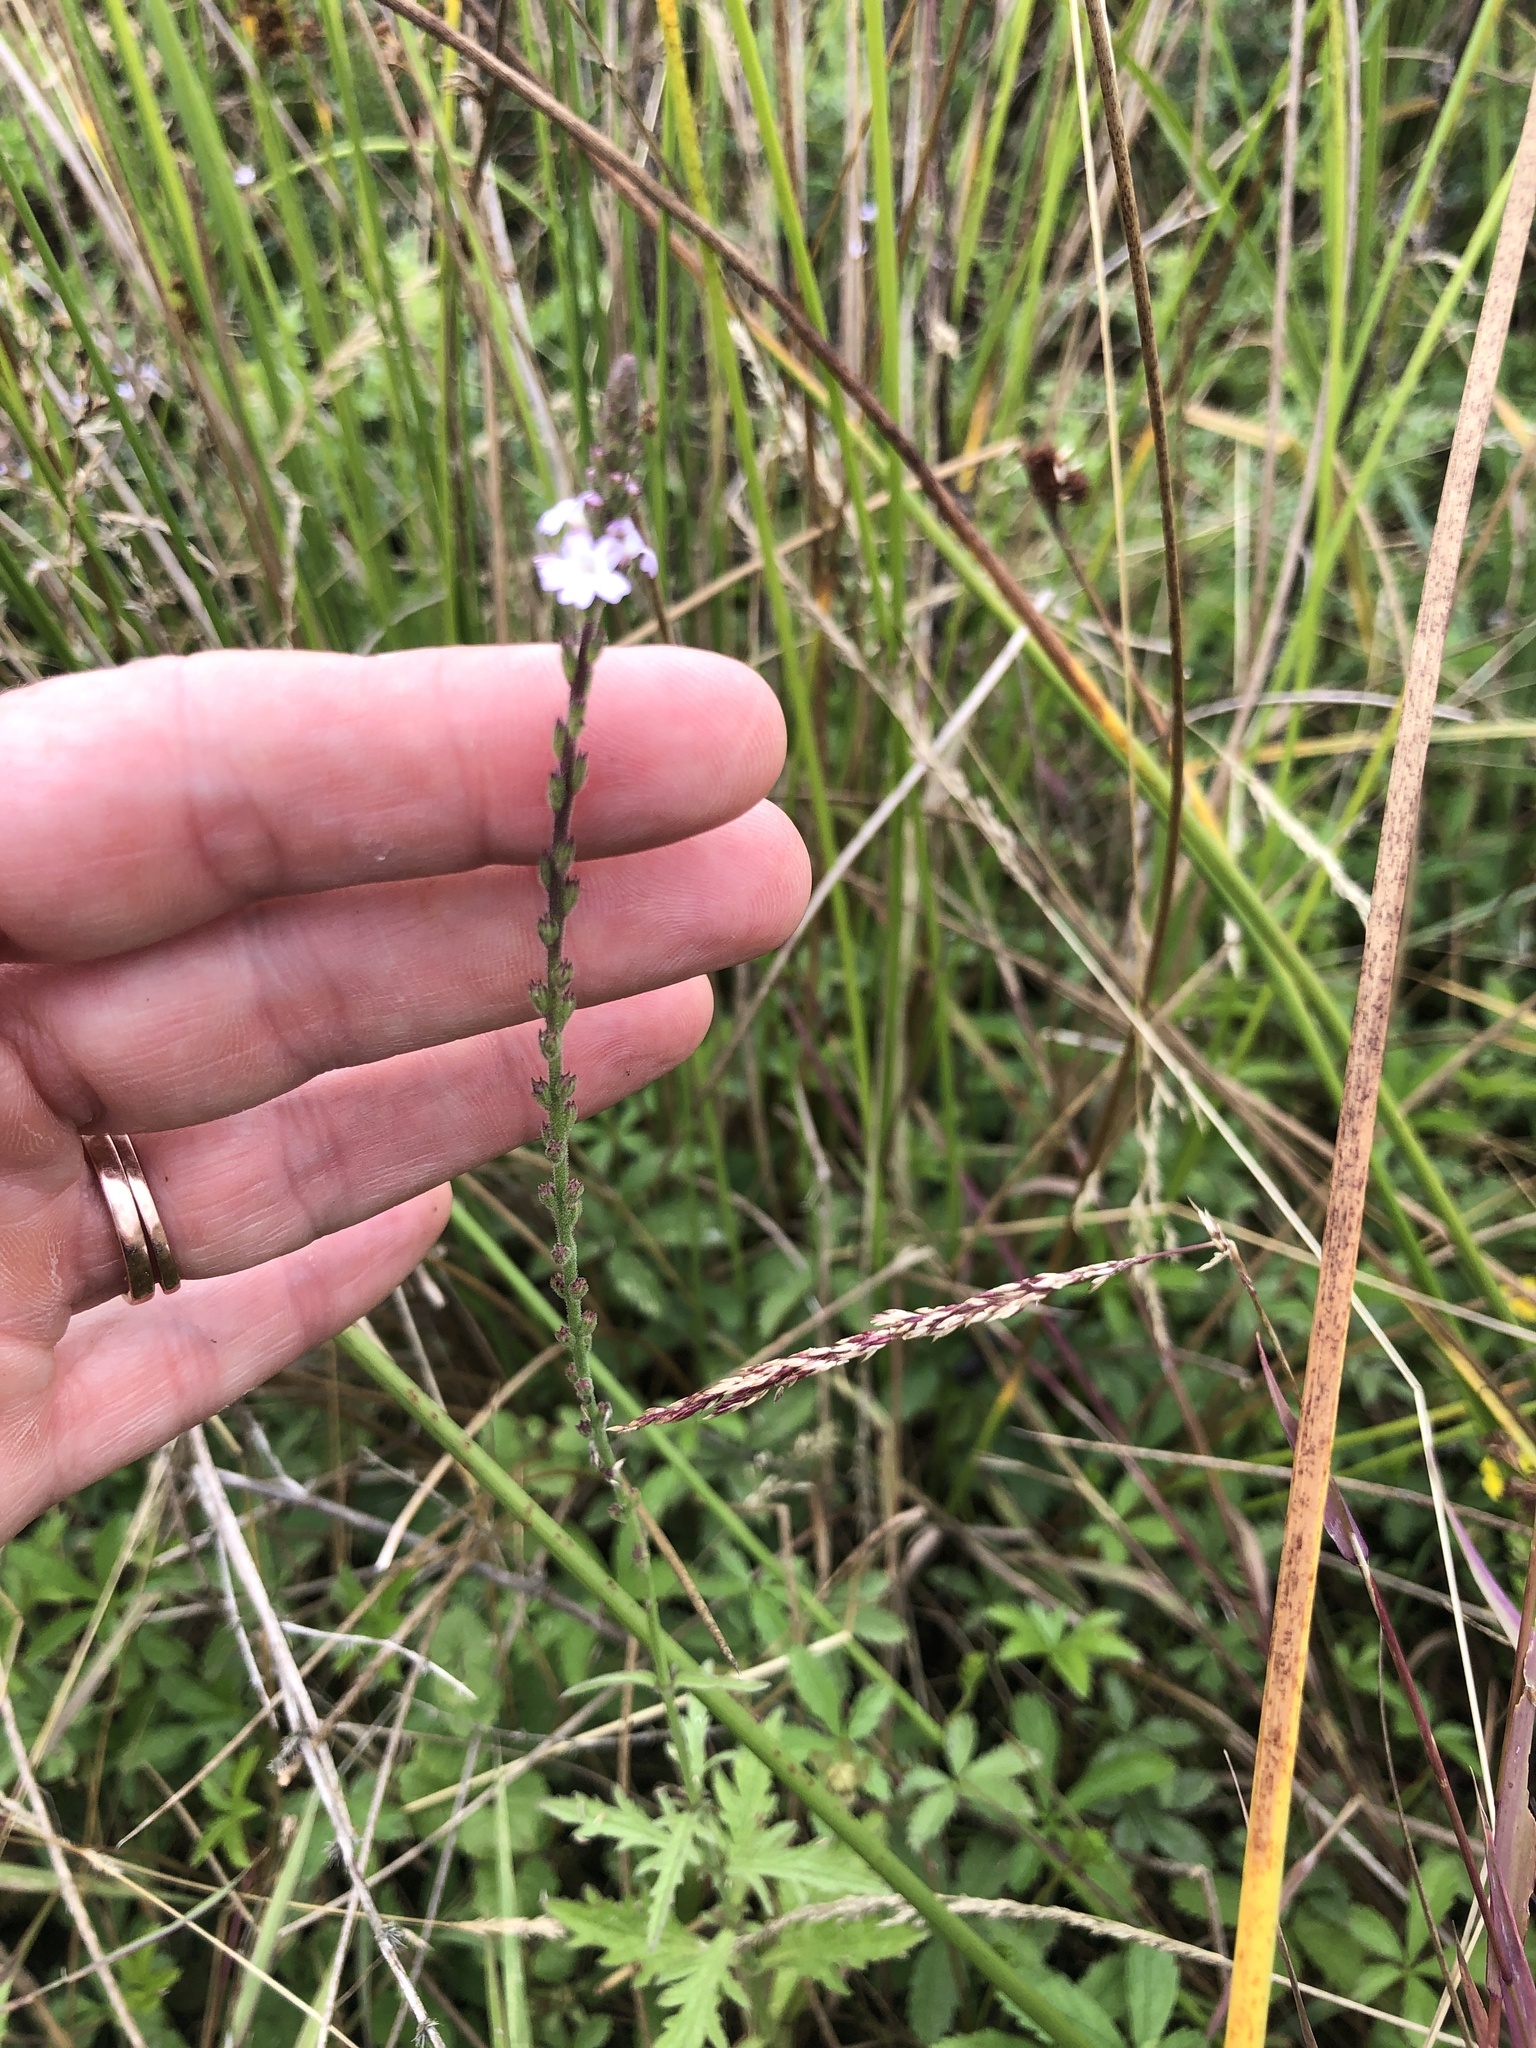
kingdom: Plantae
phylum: Tracheophyta
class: Magnoliopsida
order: Lamiales
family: Verbenaceae
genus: Verbena
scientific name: Verbena officinalis
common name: Vervain
